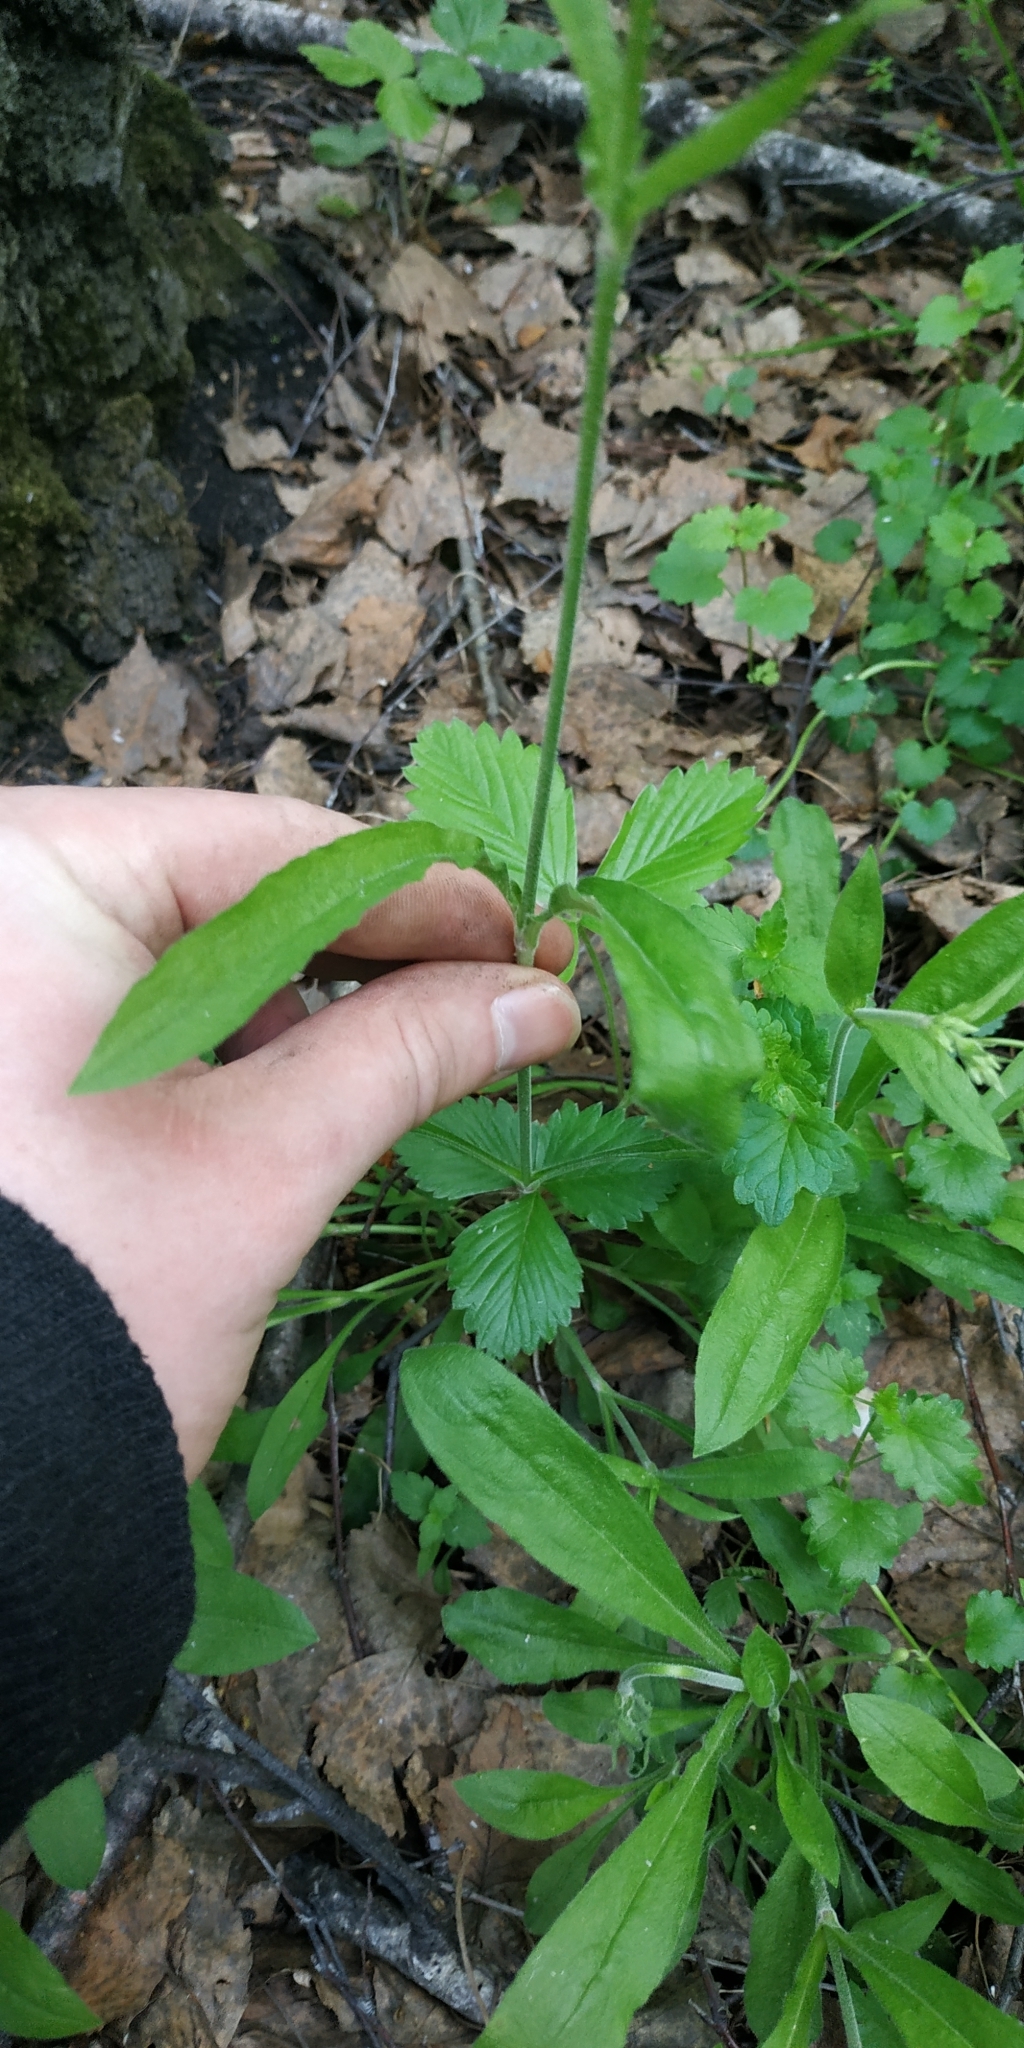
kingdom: Plantae
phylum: Tracheophyta
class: Magnoliopsida
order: Caryophyllales
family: Caryophyllaceae
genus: Silene
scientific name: Silene nutans
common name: Nottingham catchfly
